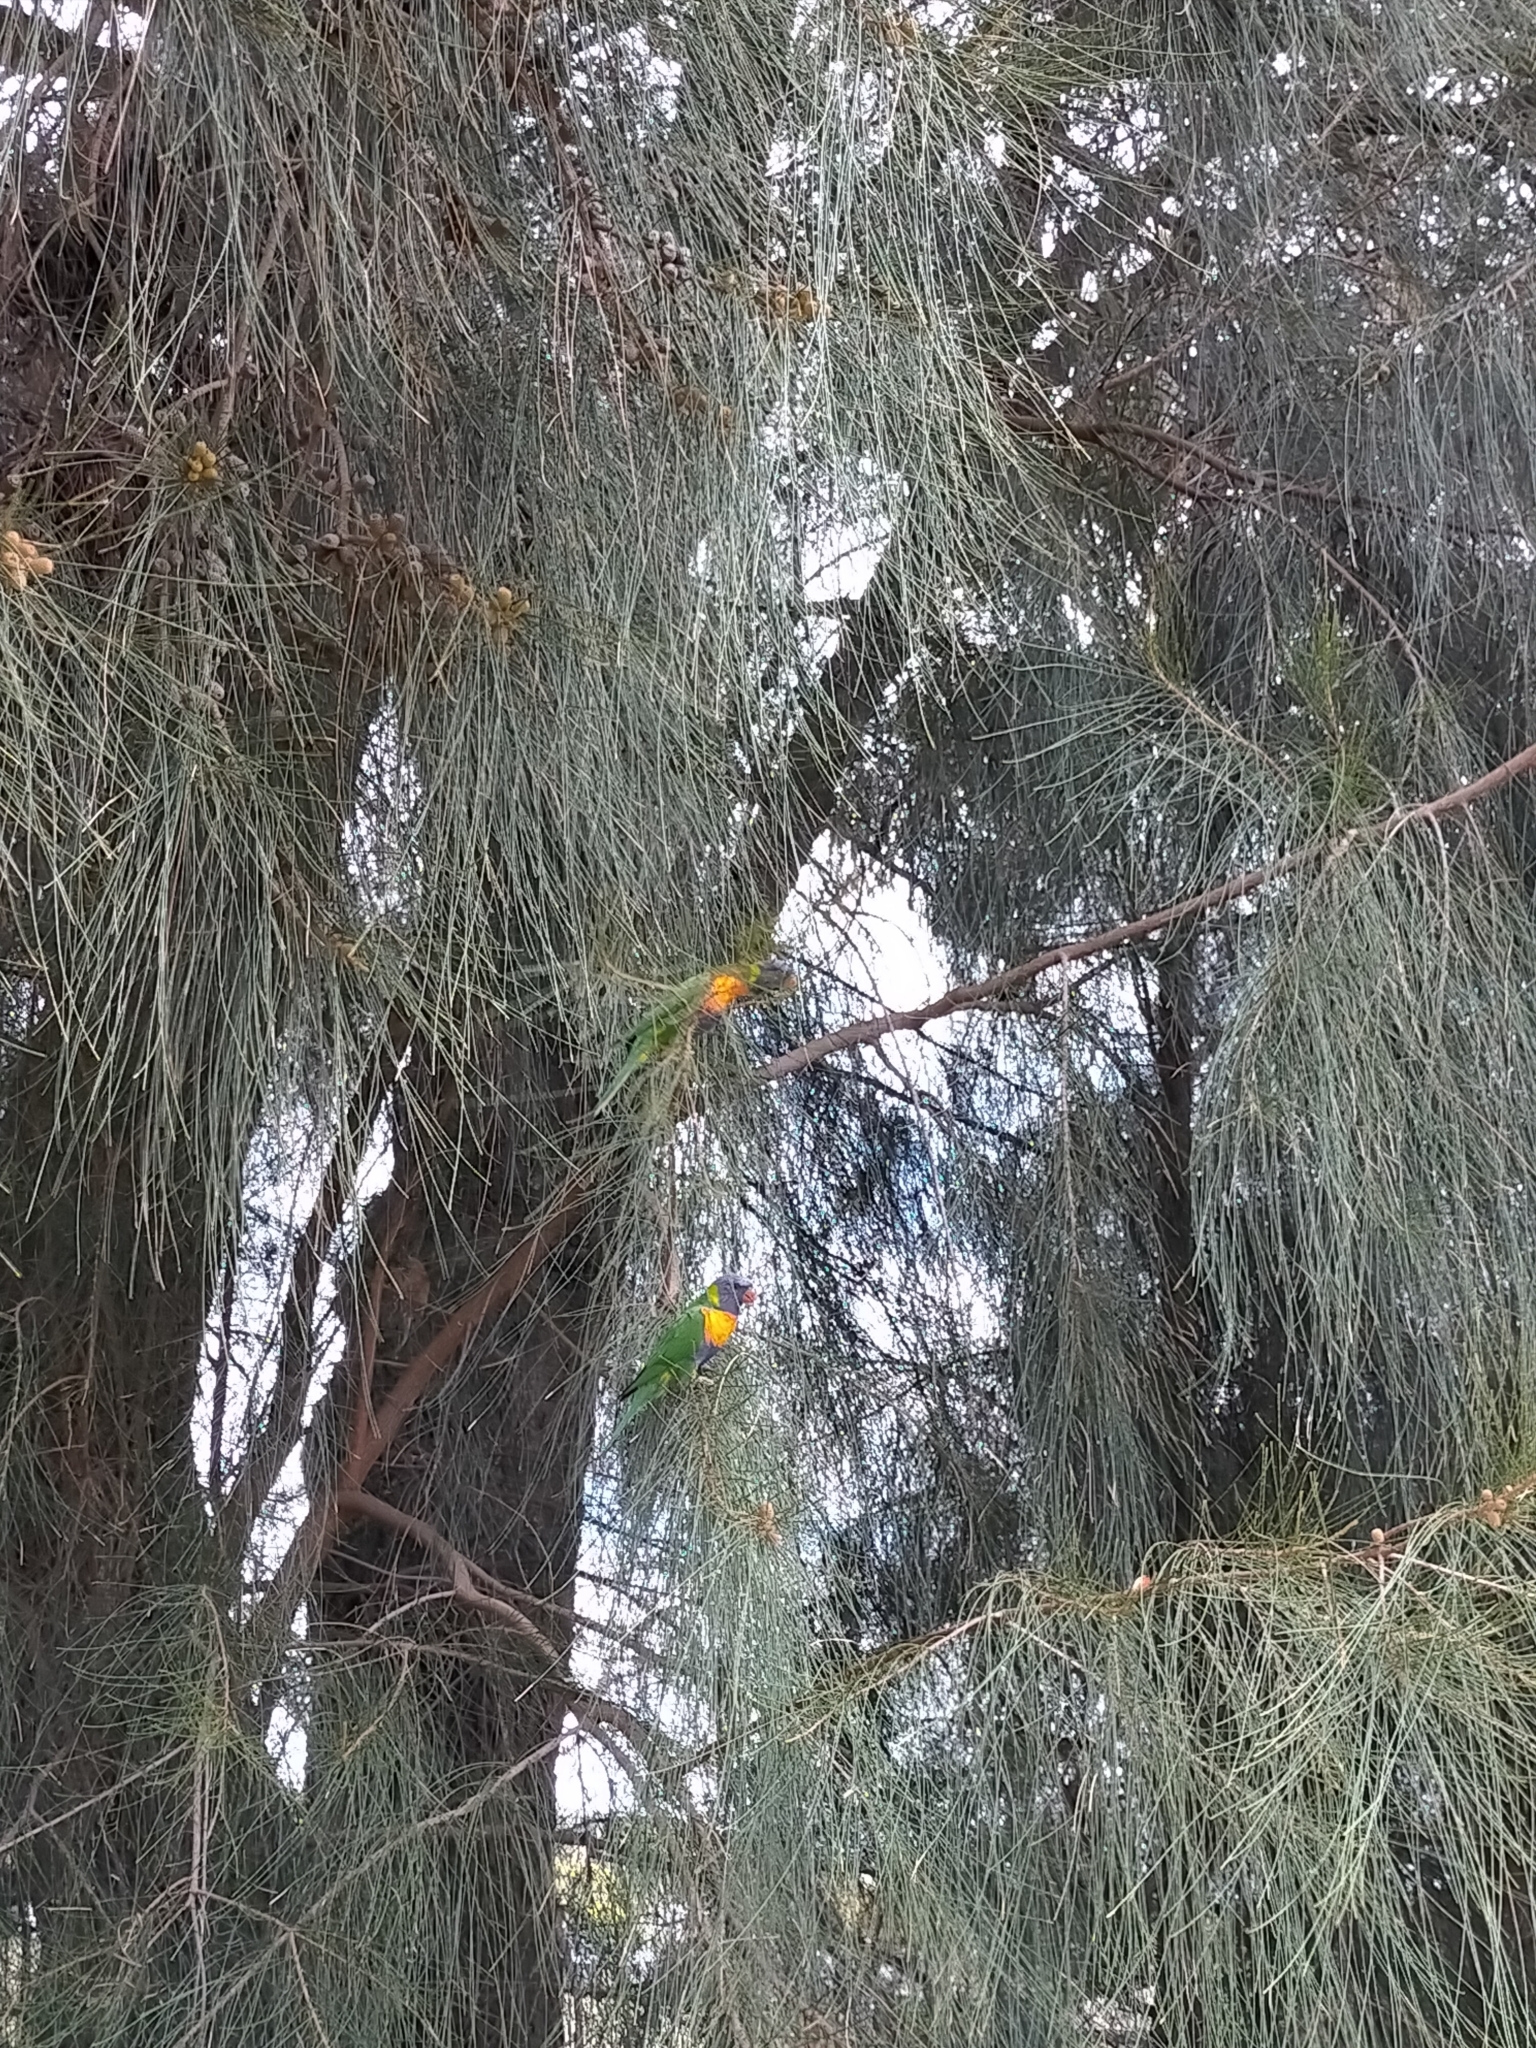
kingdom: Animalia
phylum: Chordata
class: Aves
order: Psittaciformes
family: Psittacidae
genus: Trichoglossus
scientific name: Trichoglossus haematodus
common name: Coconut lorikeet
